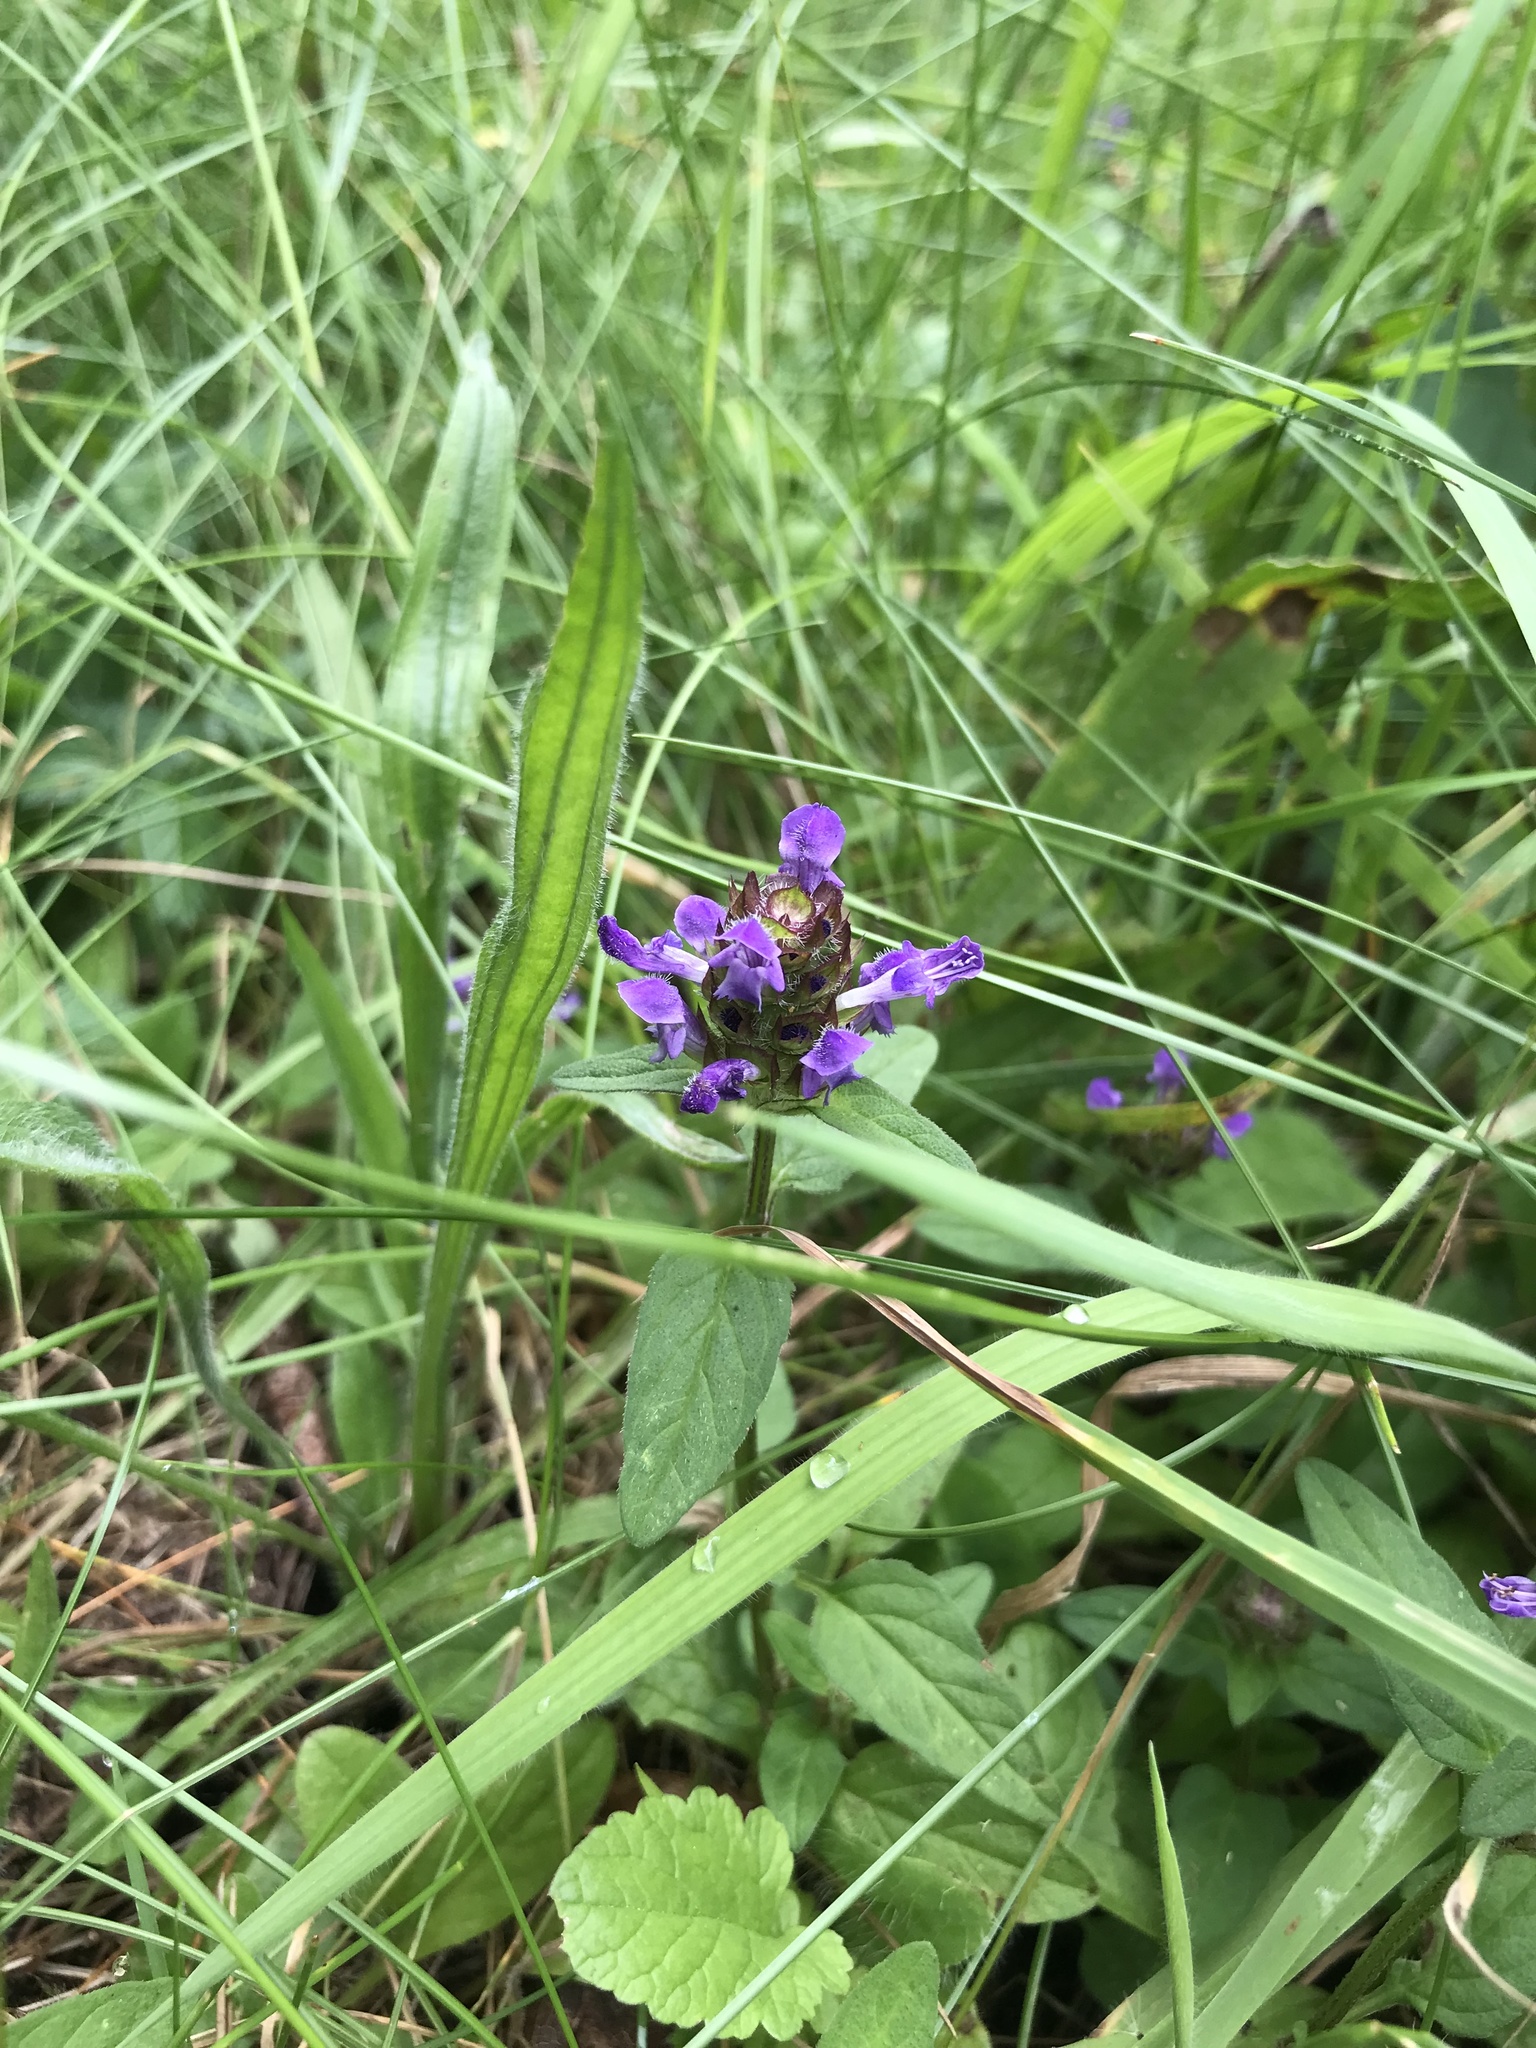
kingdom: Plantae
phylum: Tracheophyta
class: Magnoliopsida
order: Lamiales
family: Lamiaceae
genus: Prunella
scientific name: Prunella vulgaris
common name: Heal-all
